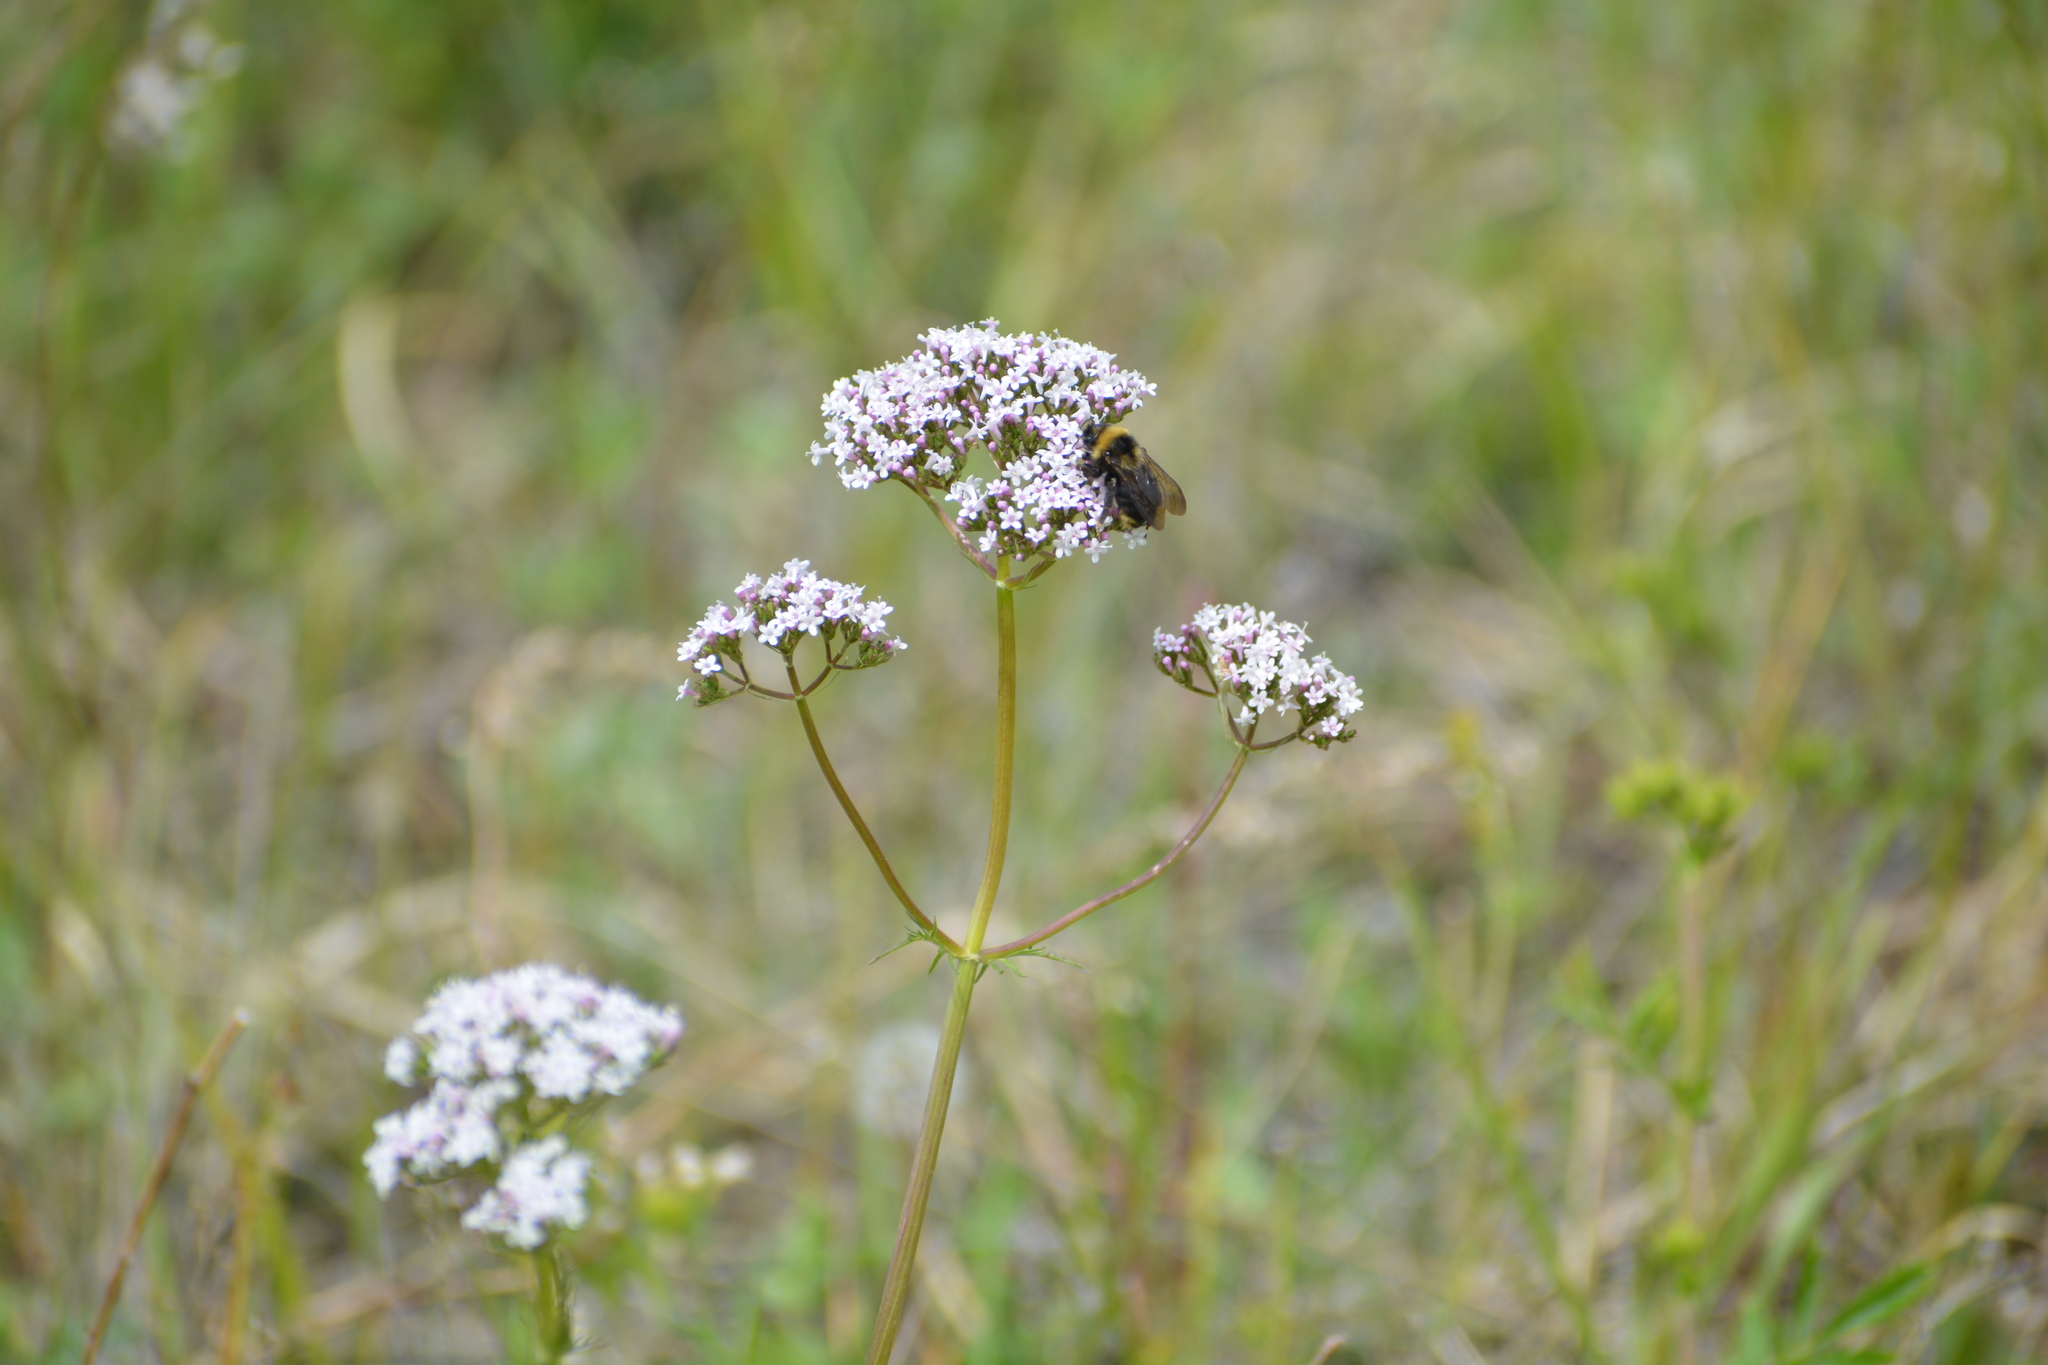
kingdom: Animalia
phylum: Arthropoda
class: Insecta
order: Hymenoptera
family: Apidae
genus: Bombus
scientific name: Bombus campestris
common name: Field cuckoo-bee
